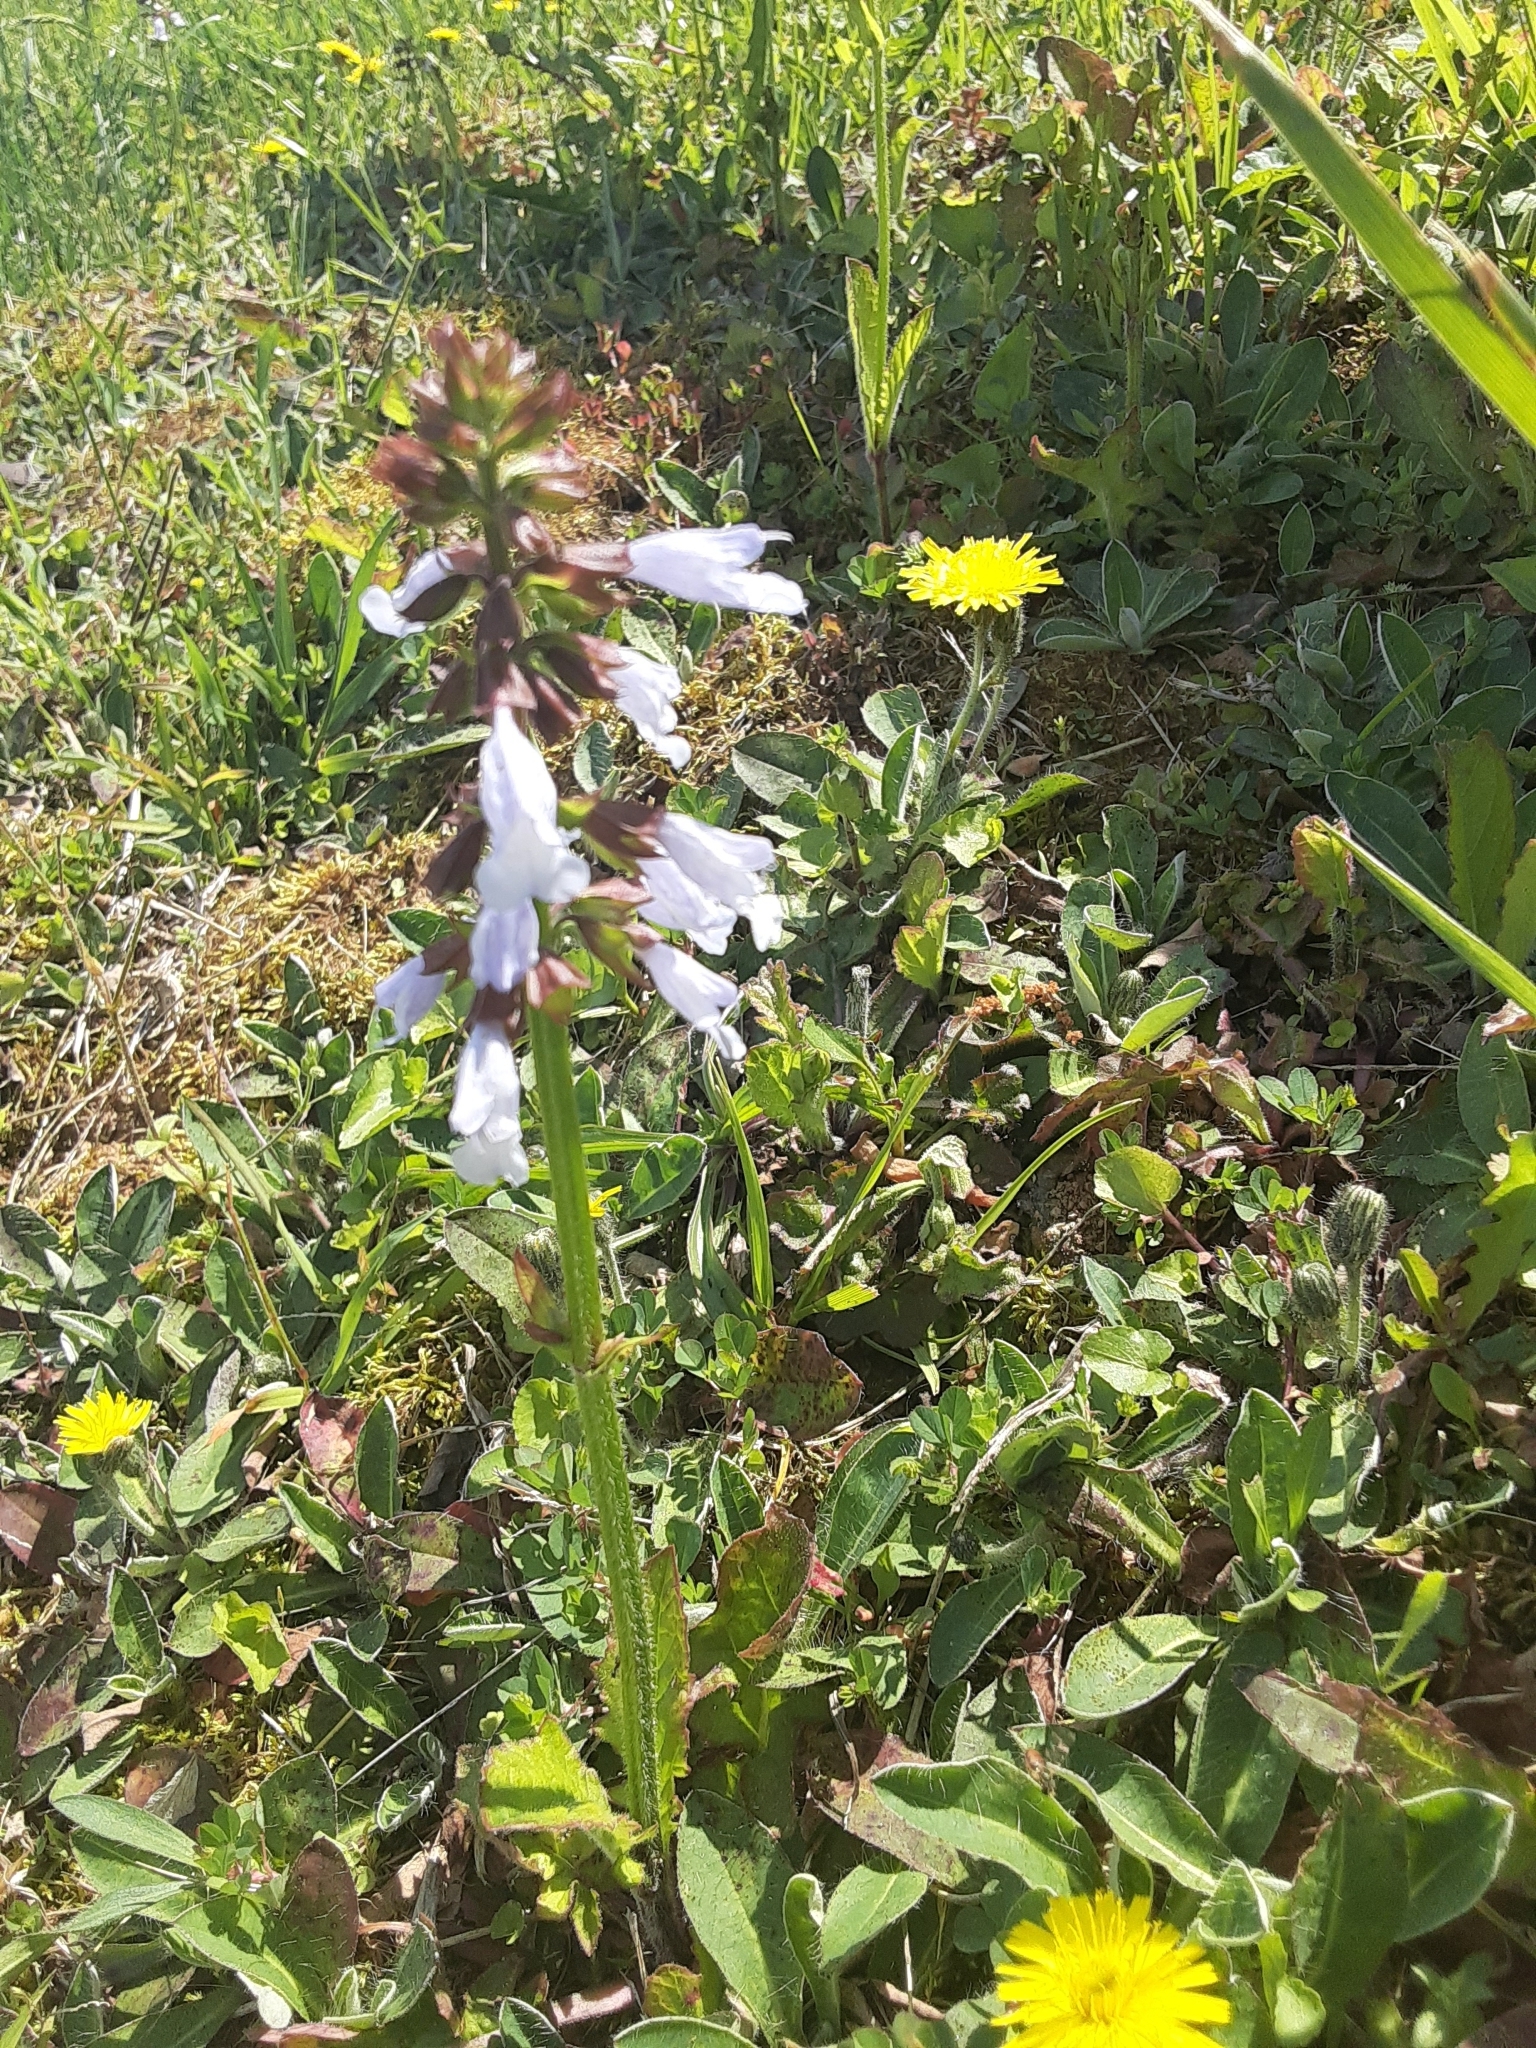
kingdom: Plantae
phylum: Tracheophyta
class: Magnoliopsida
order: Lamiales
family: Lamiaceae
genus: Salvia
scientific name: Salvia lyrata
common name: Cancerweed
